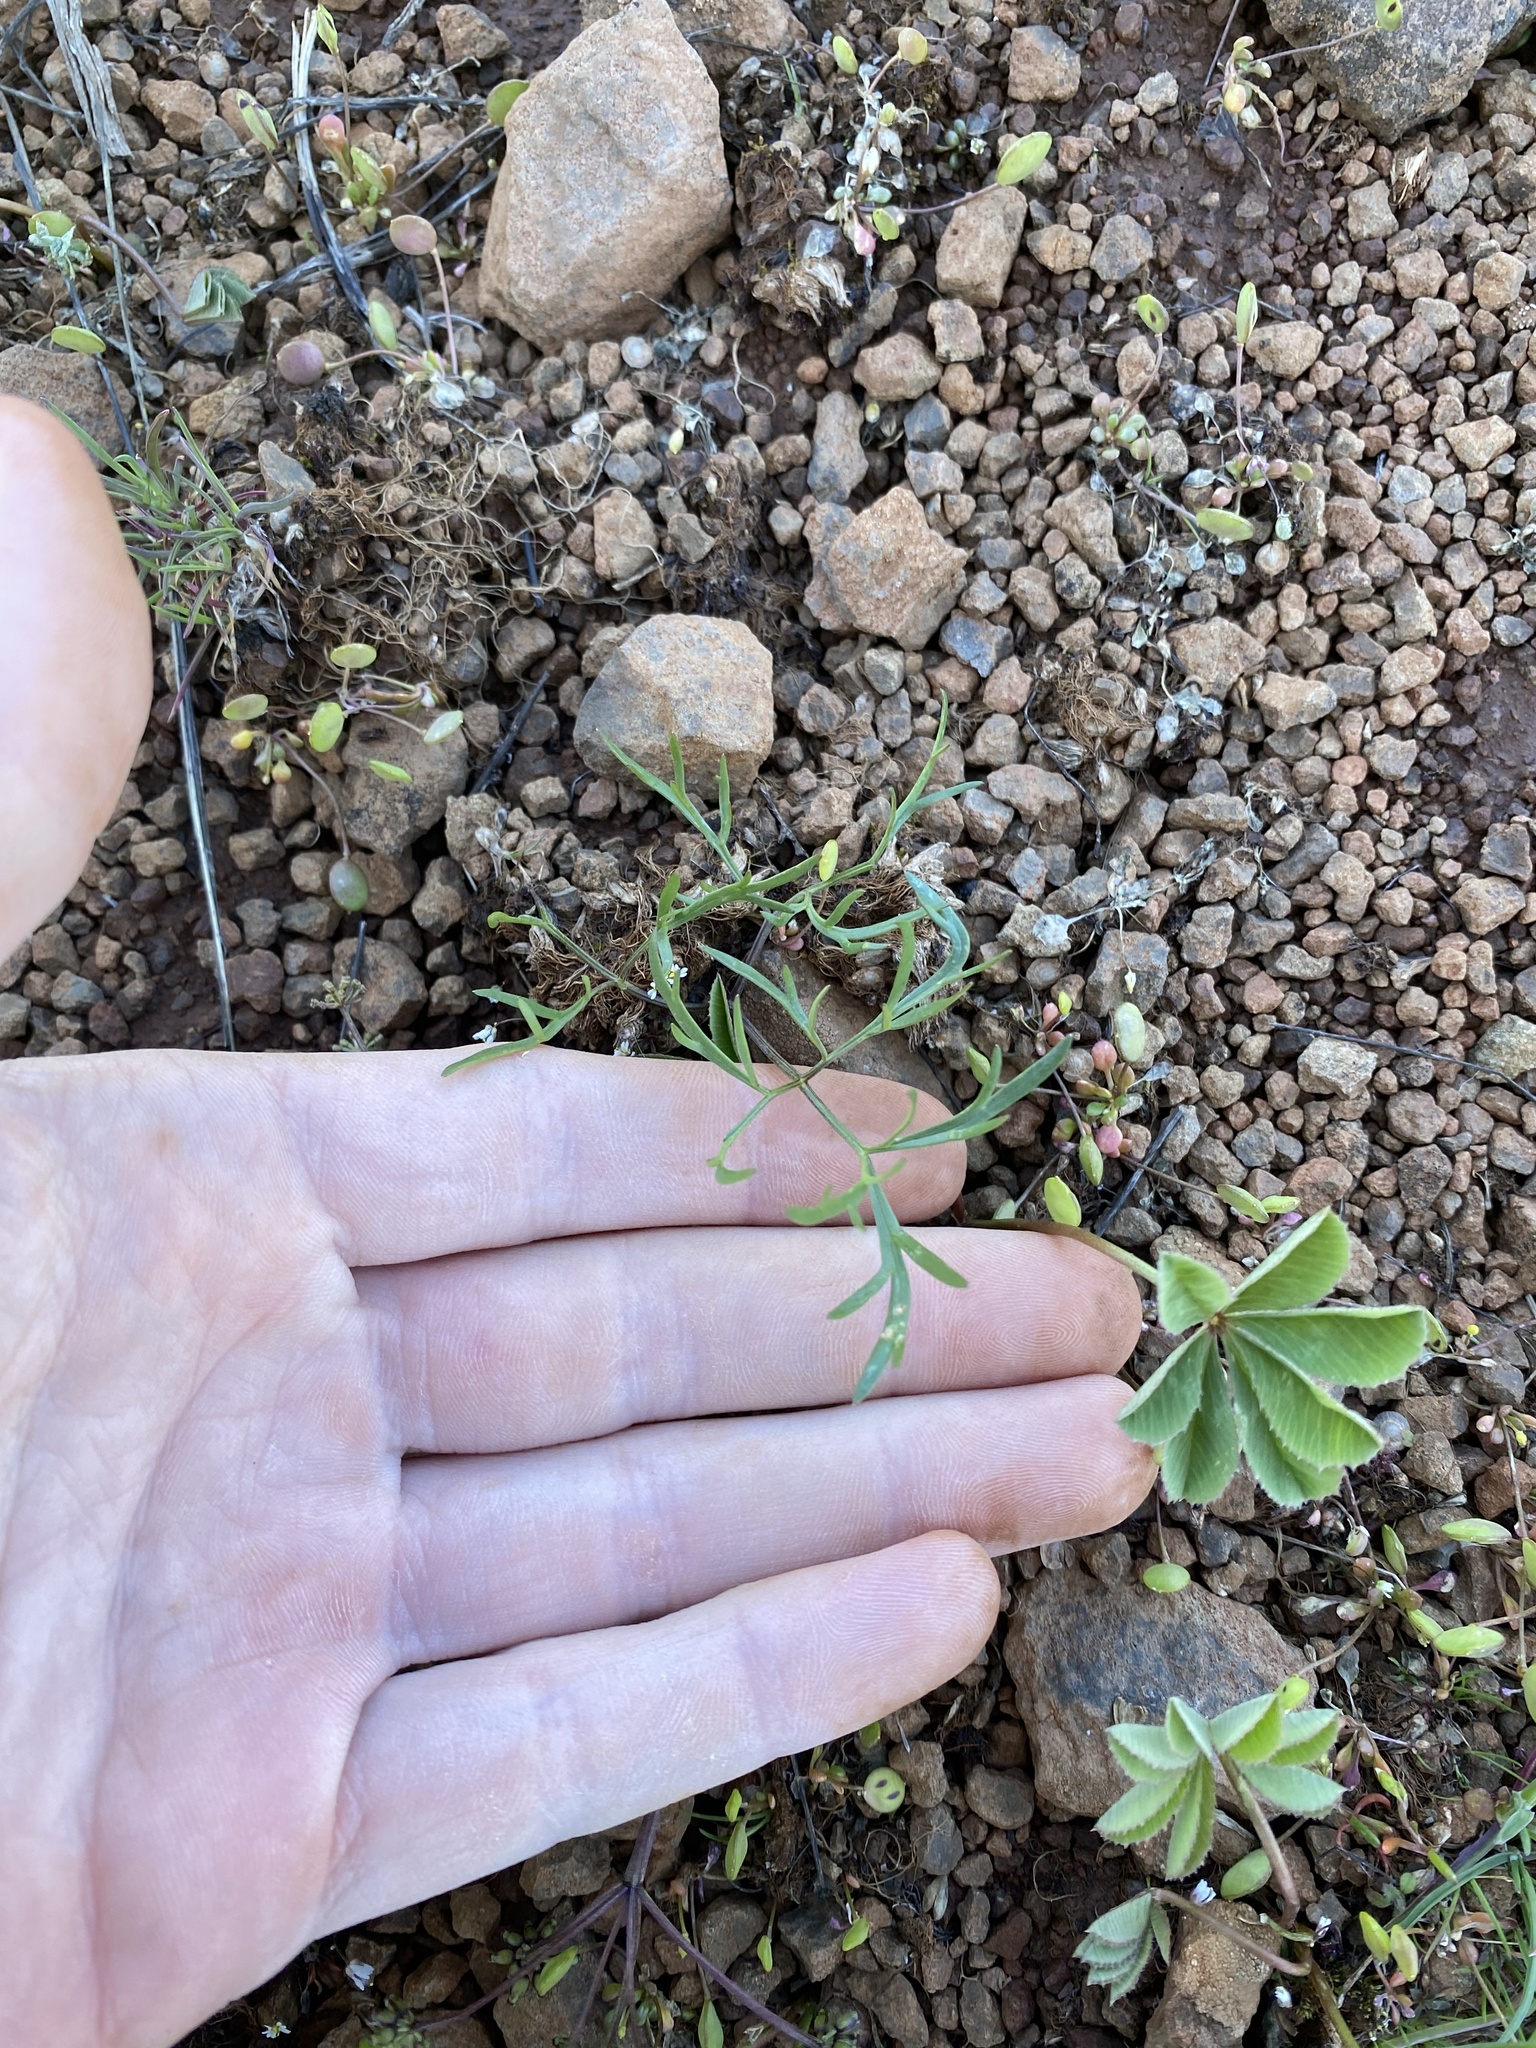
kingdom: Plantae
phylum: Tracheophyta
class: Magnoliopsida
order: Apiales
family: Apiaceae
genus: Lomatium
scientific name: Lomatium linearifolium
